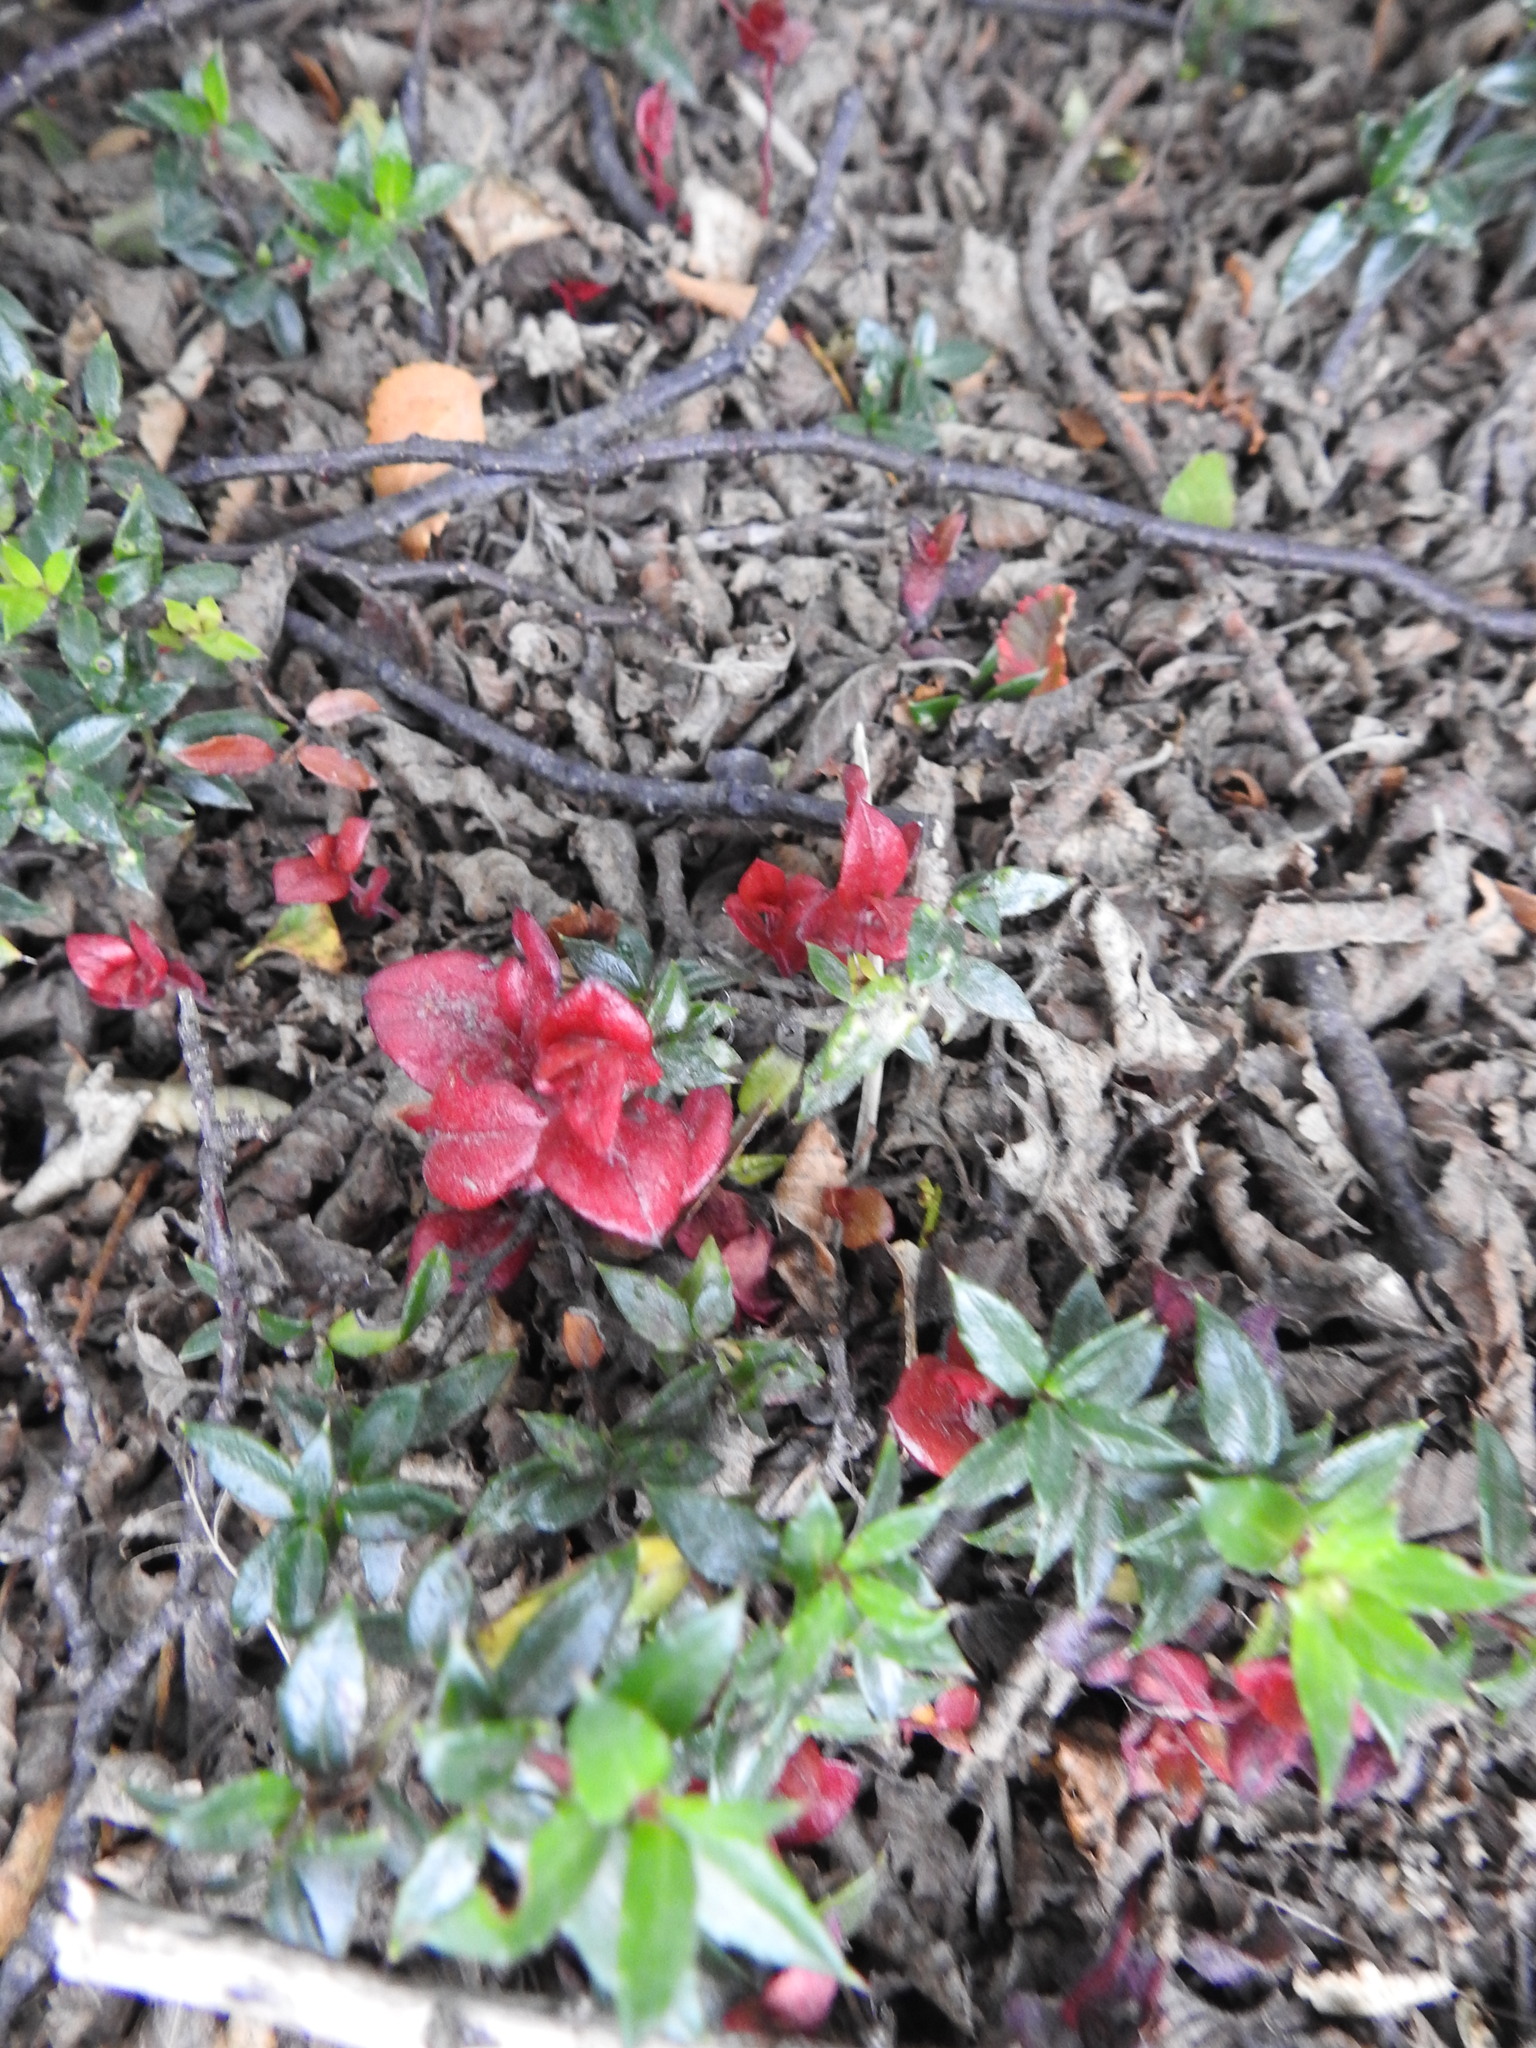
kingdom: Fungi
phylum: Basidiomycota
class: Exobasidiomycetes
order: Exobasidiales
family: Exobasidiaceae
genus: Exobasidium
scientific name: Exobasidium gomezii
